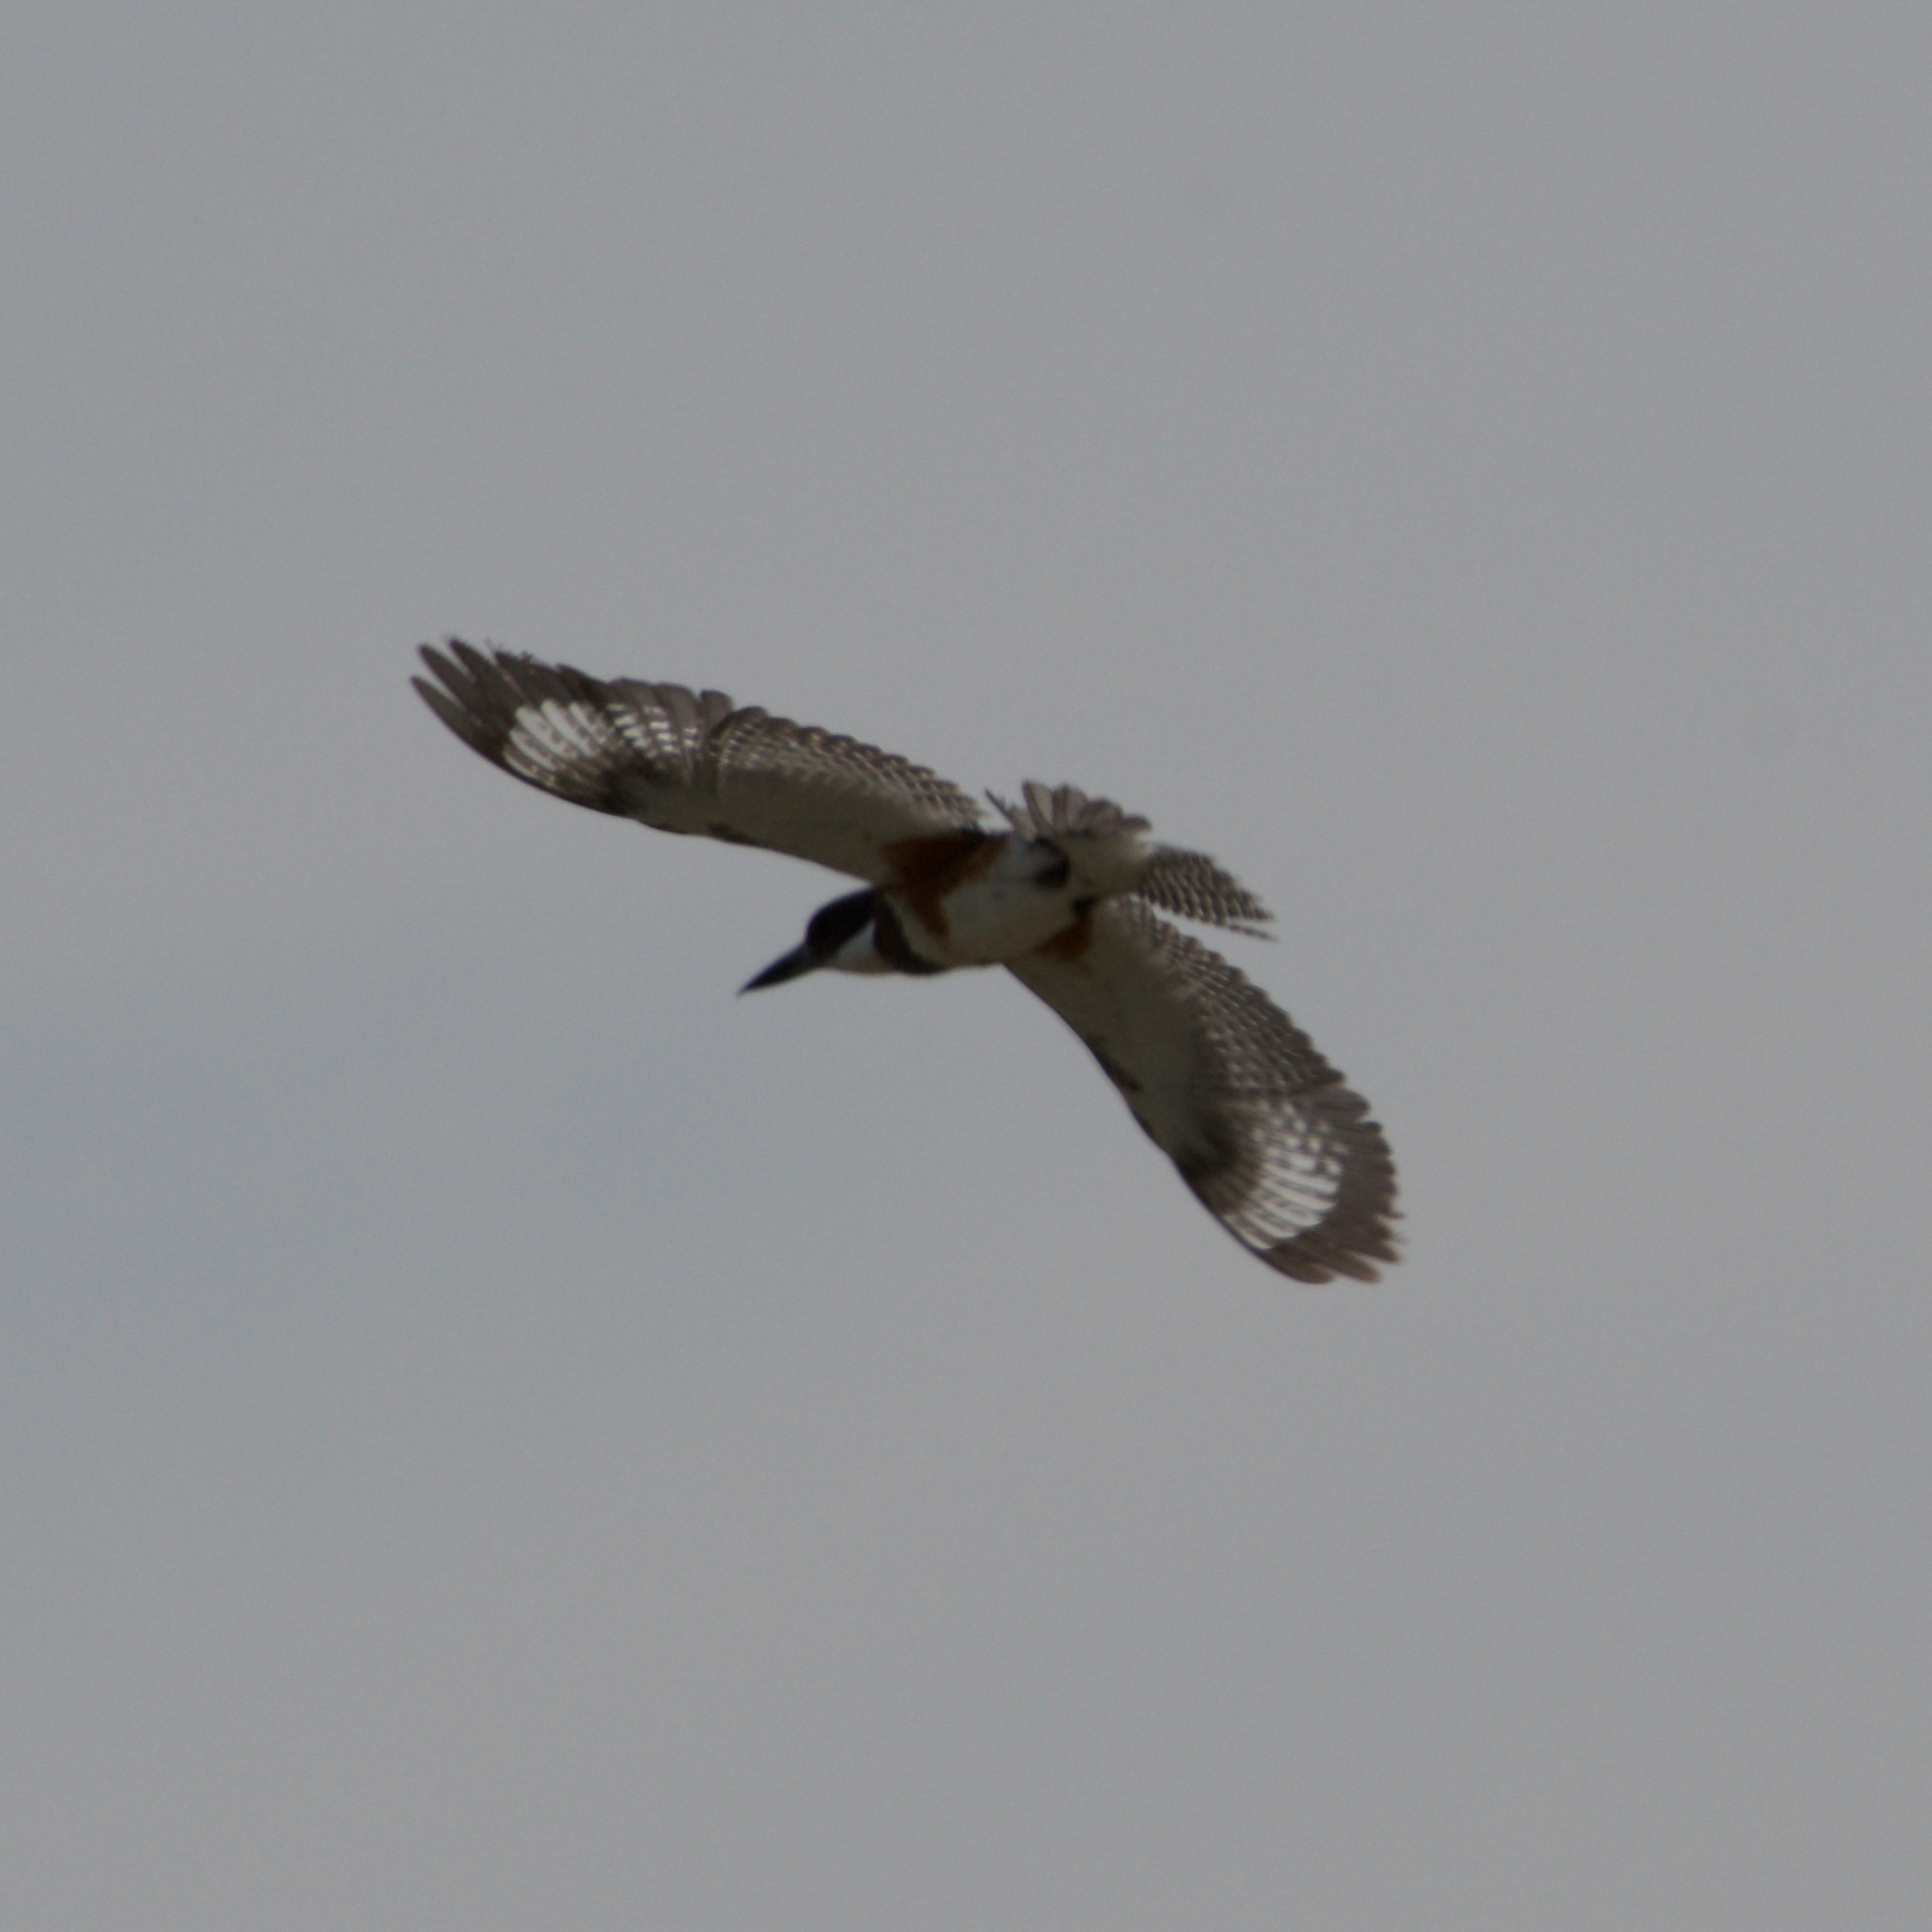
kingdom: Animalia
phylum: Chordata
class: Aves
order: Coraciiformes
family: Alcedinidae
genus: Megaceryle
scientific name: Megaceryle alcyon
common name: Belted kingfisher
